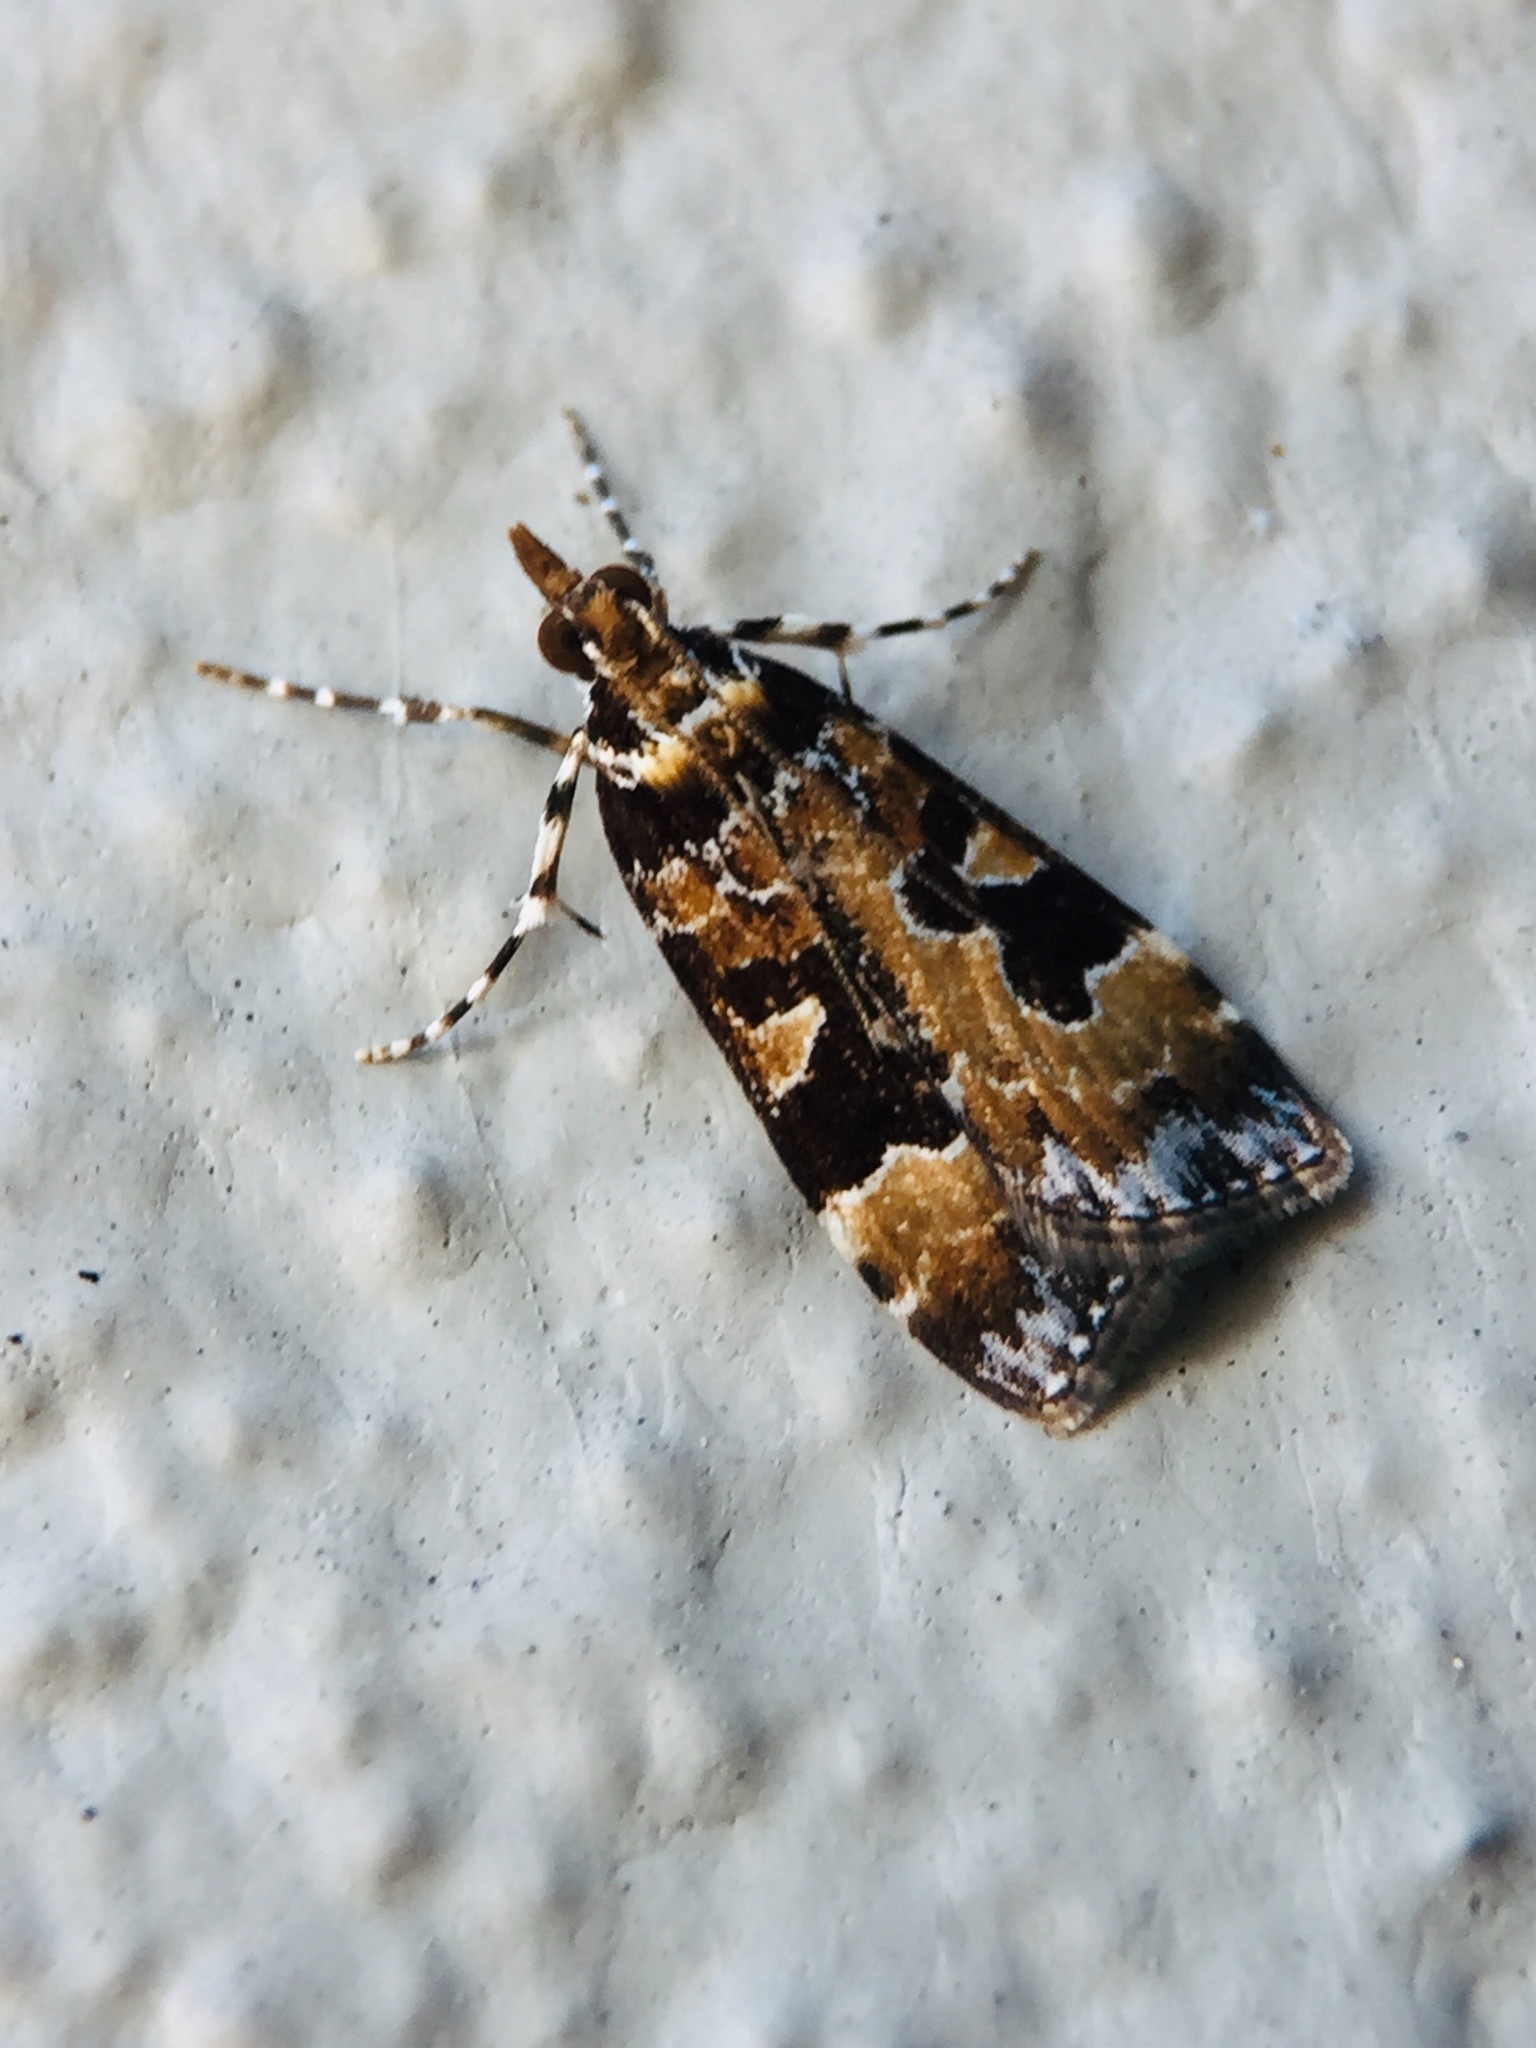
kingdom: Animalia
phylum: Arthropoda
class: Insecta
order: Lepidoptera
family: Crambidae
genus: Scoparia
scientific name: Scoparia ustimacula
